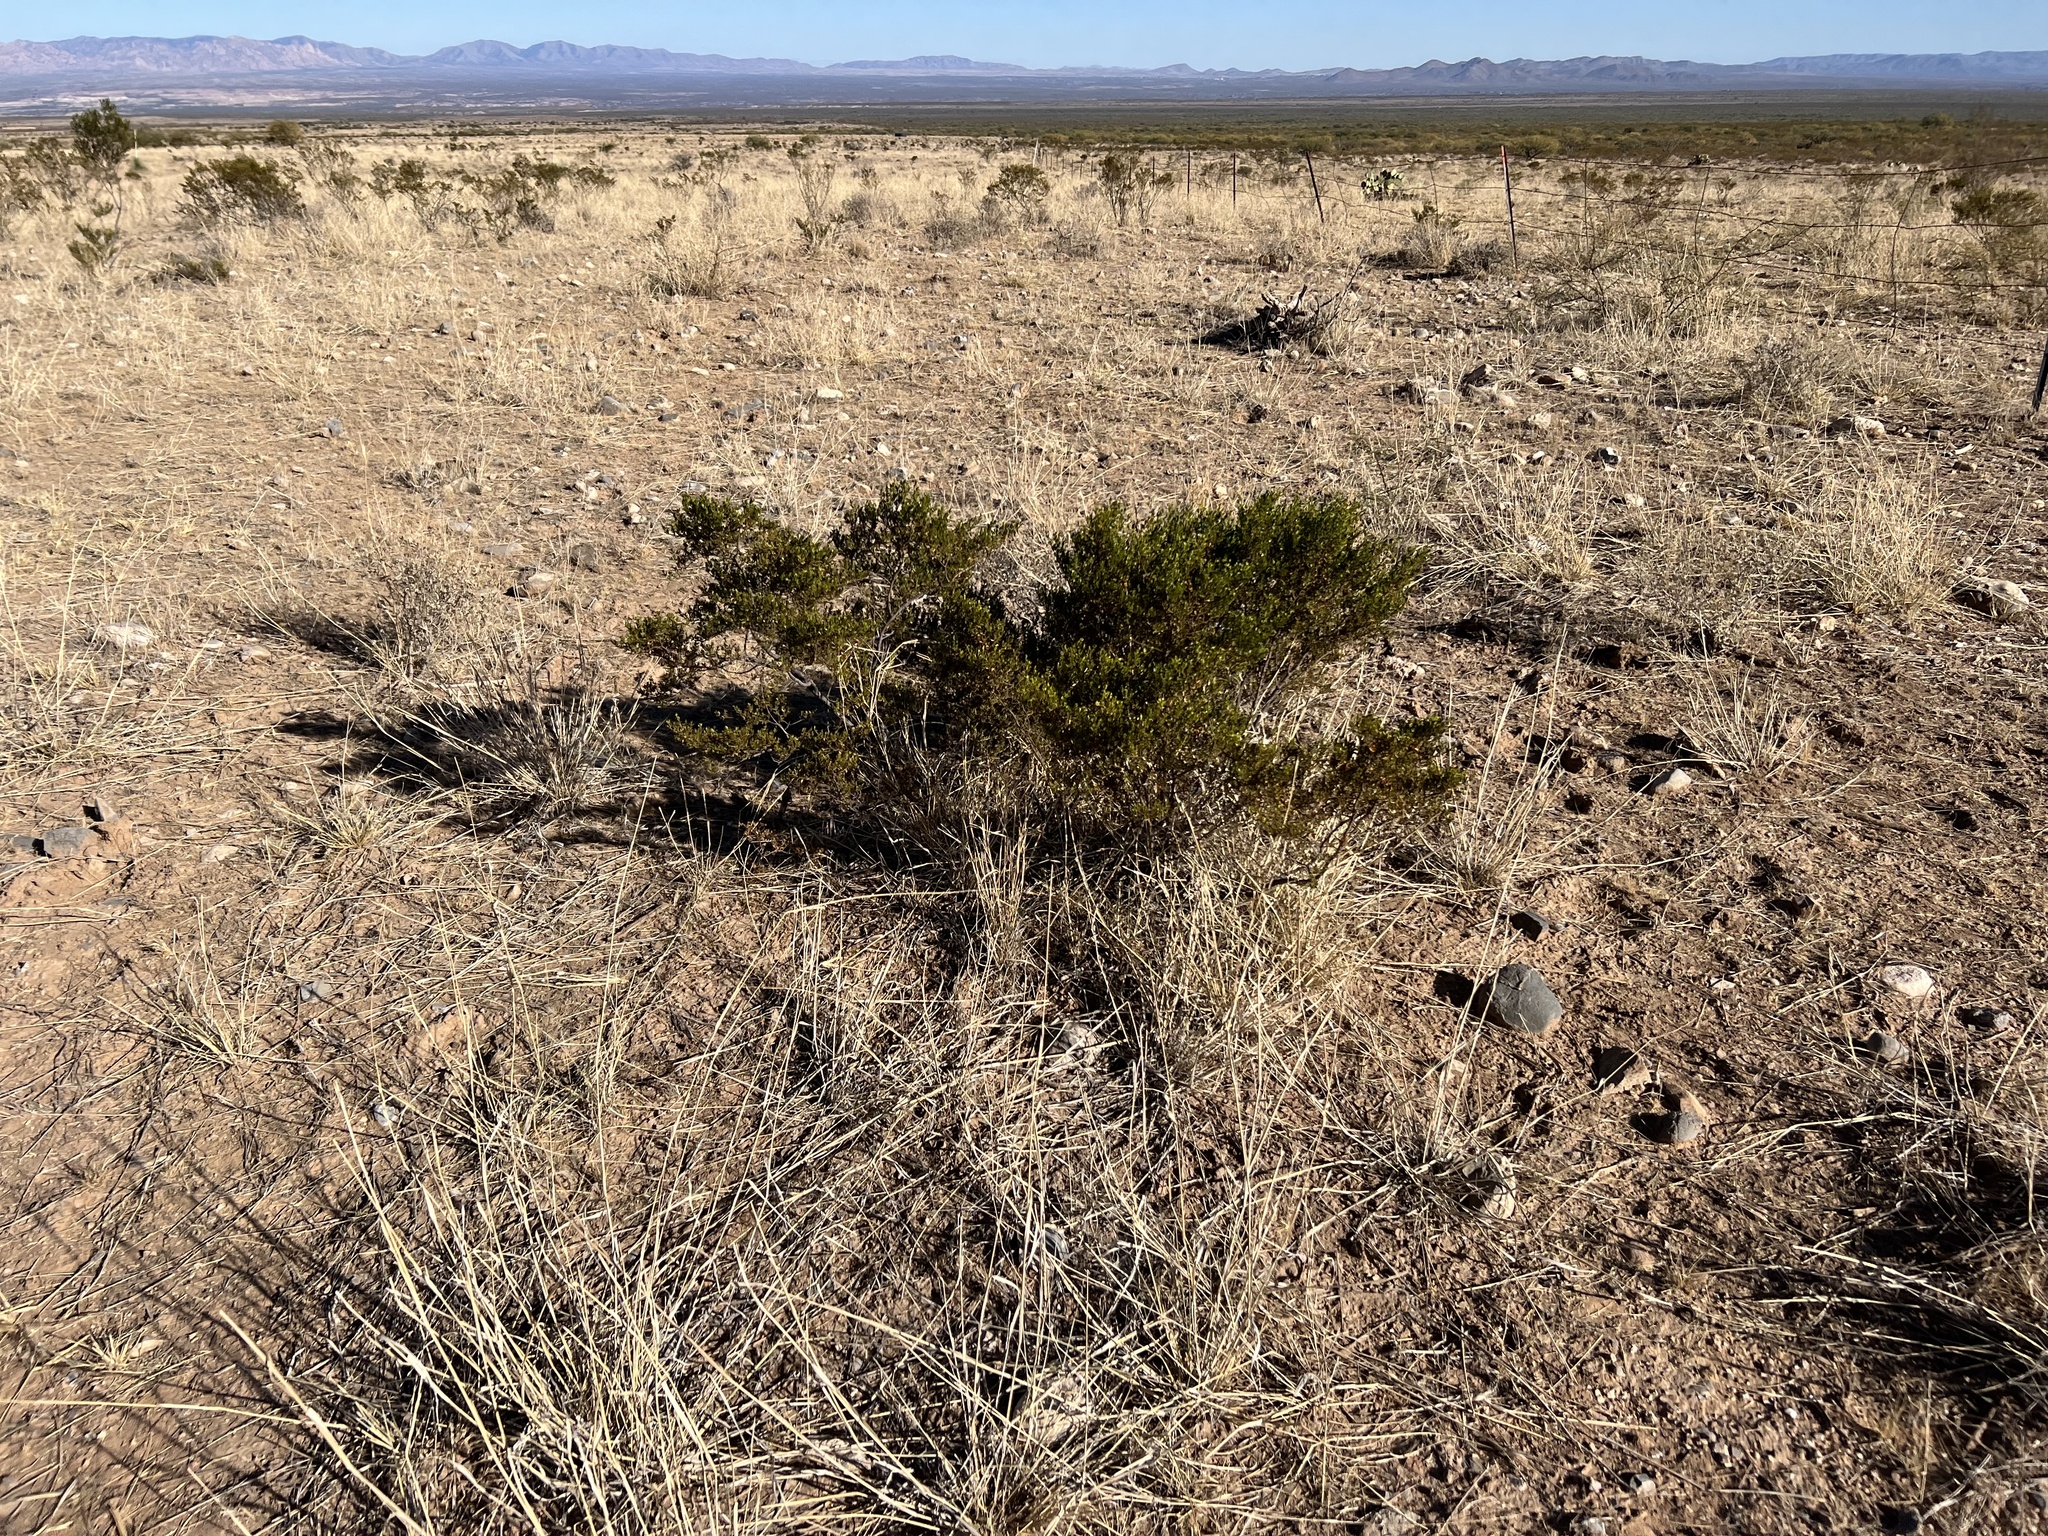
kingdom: Plantae
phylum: Tracheophyta
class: Magnoliopsida
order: Zygophyllales
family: Zygophyllaceae
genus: Larrea
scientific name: Larrea tridentata
